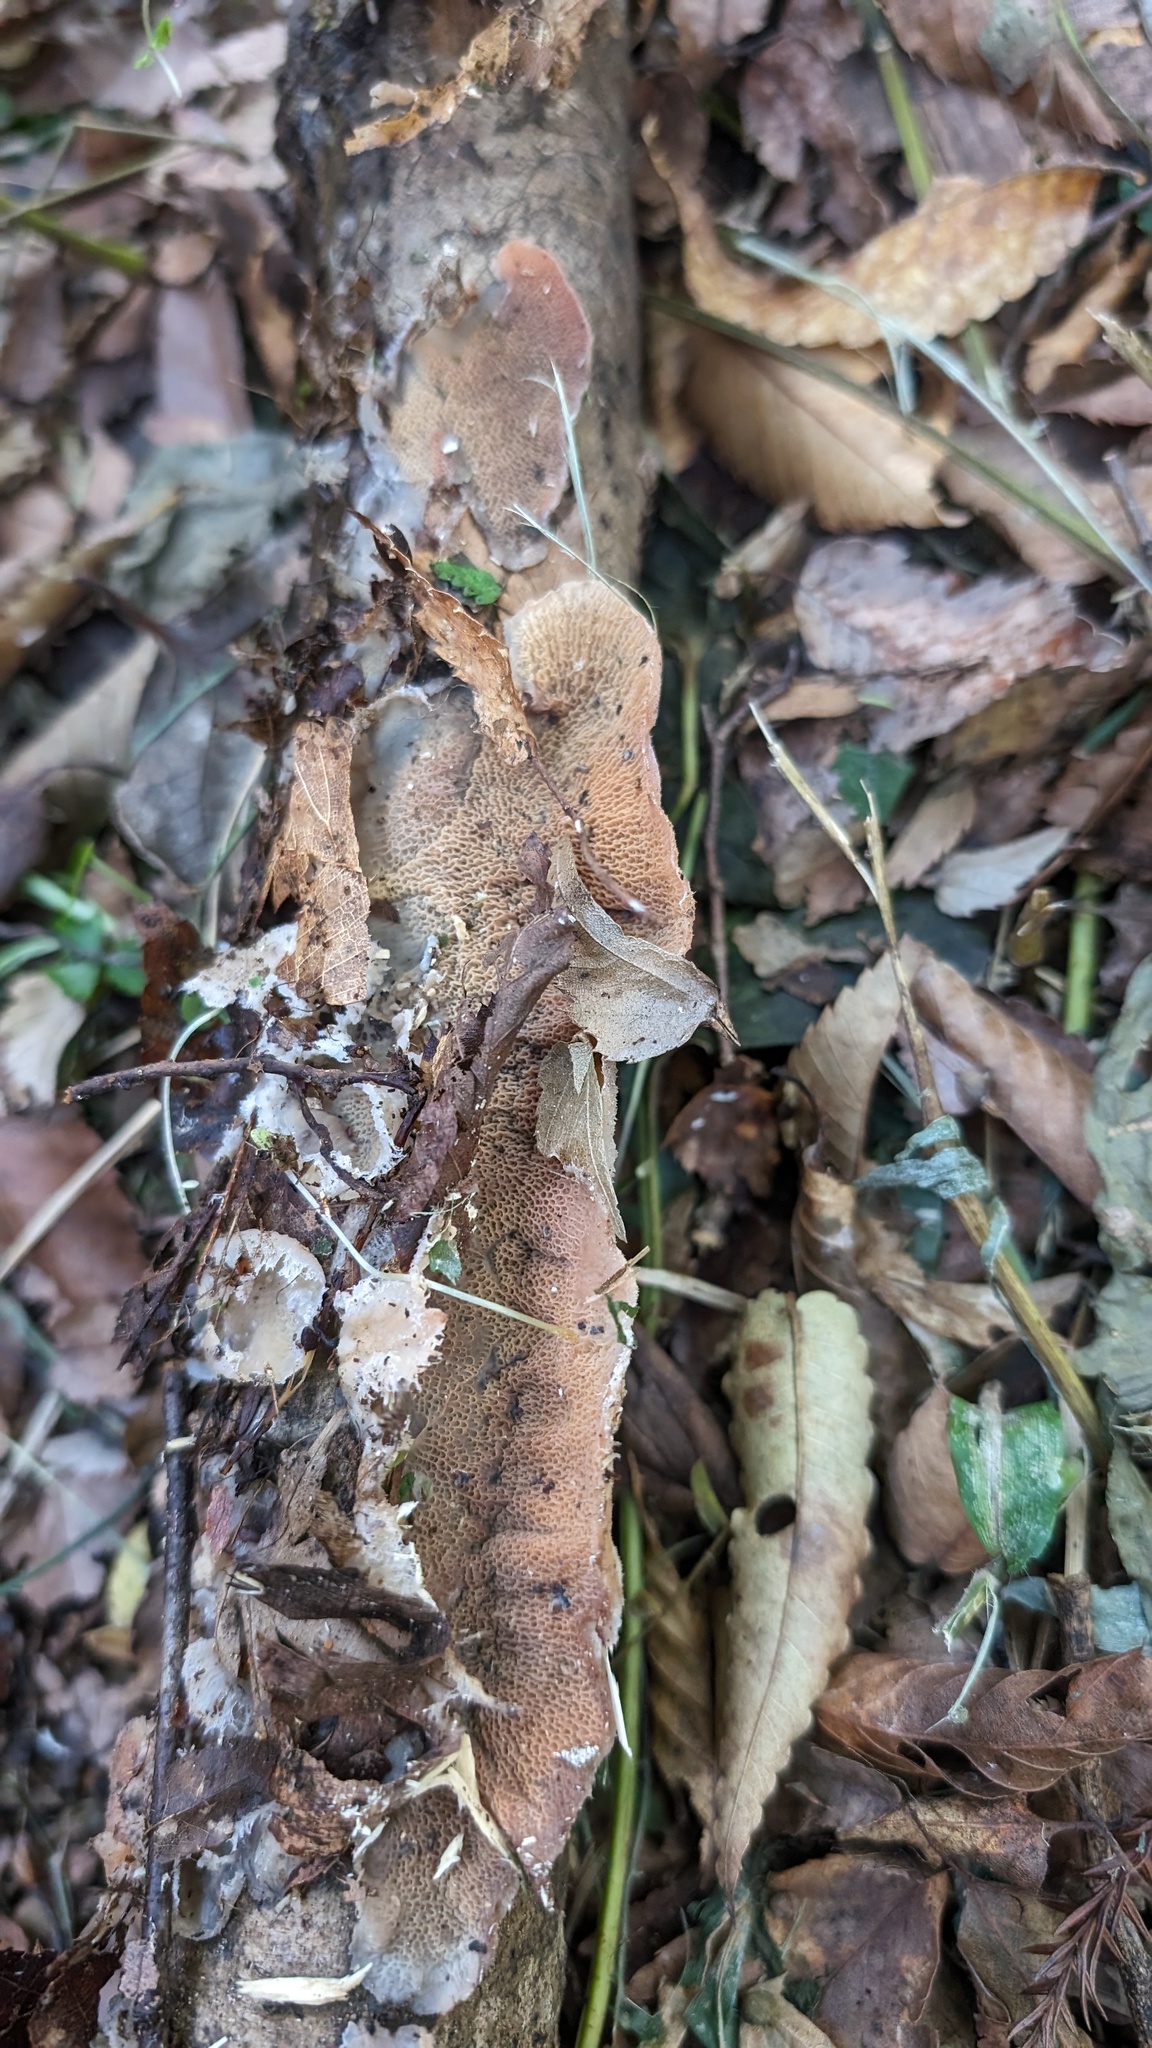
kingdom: Fungi
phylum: Basidiomycota
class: Agaricomycetes
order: Polyporales
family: Meruliaceae
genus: Phlebia
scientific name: Phlebia tremellosa
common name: Jelly rot
